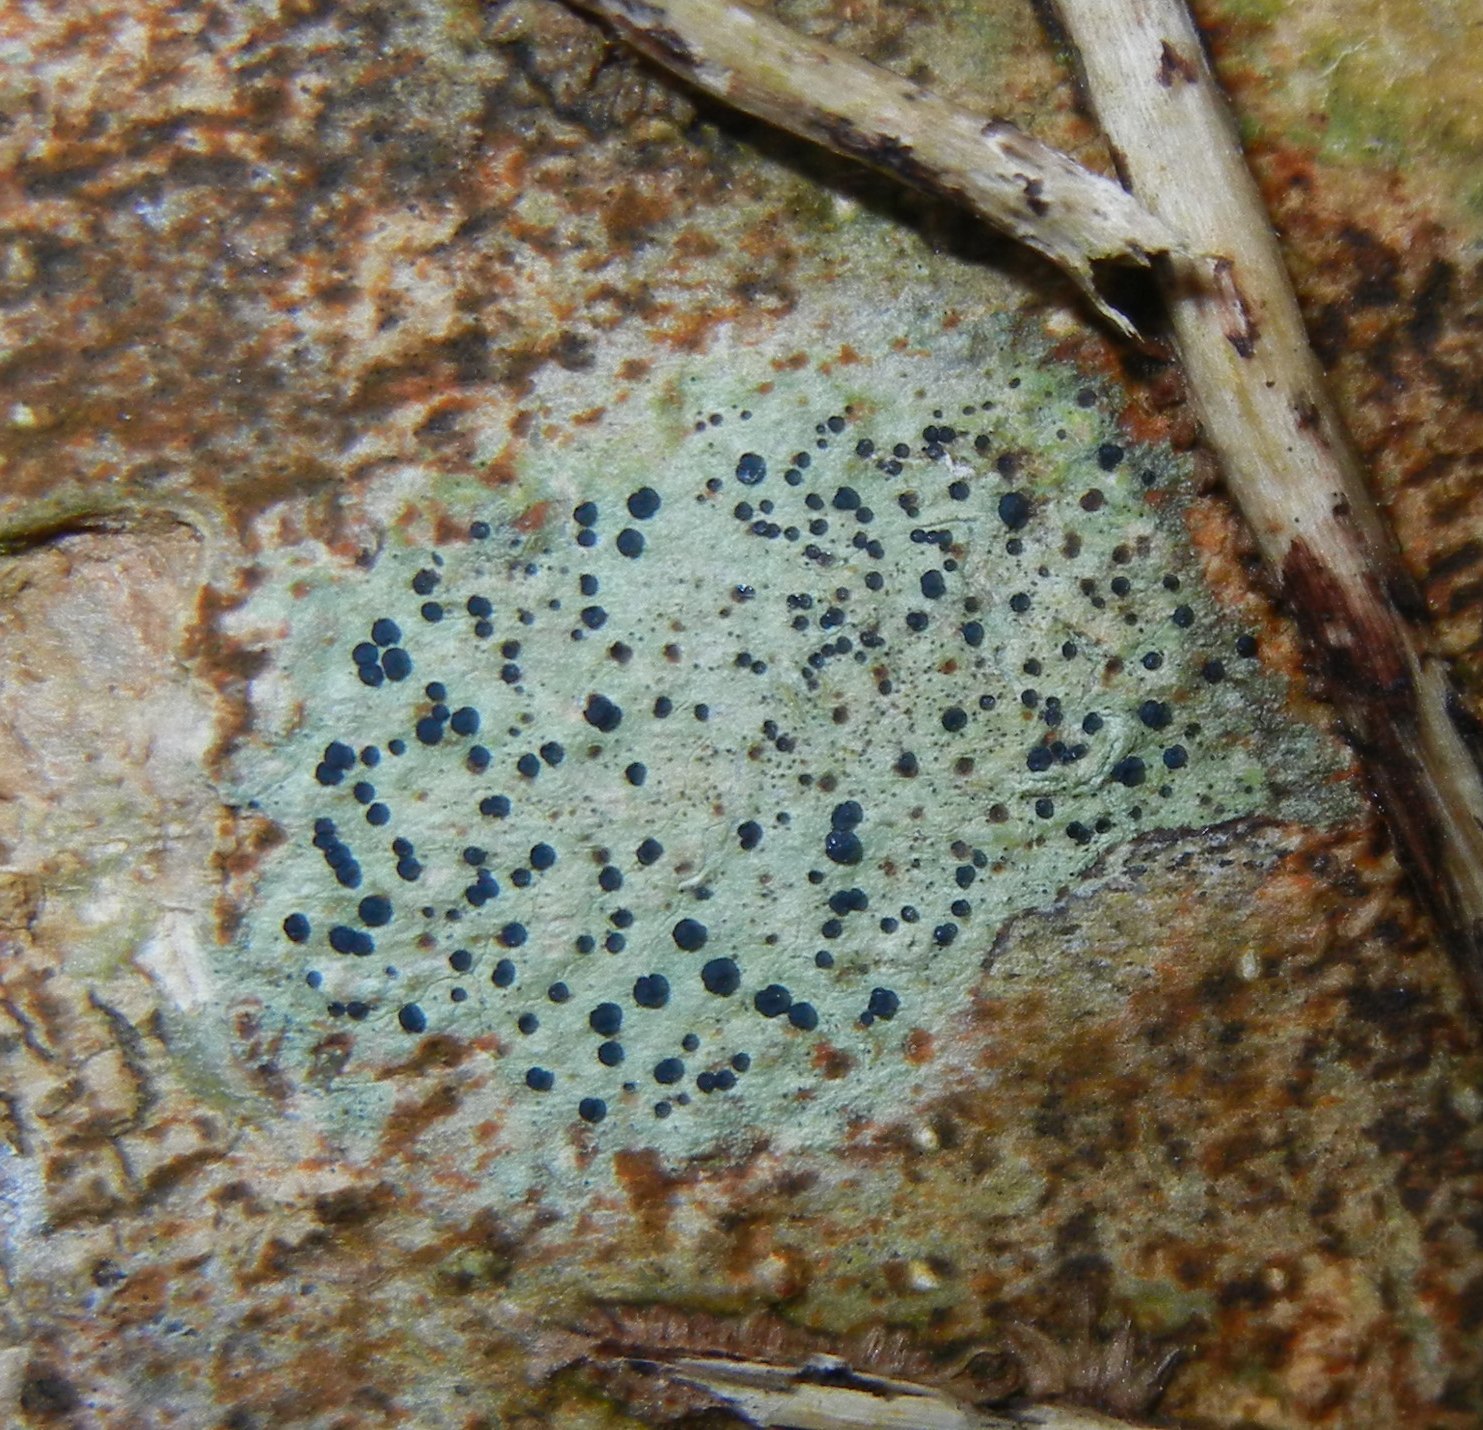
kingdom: Fungi
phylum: Ascomycota
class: Lecanoromycetes
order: Lecanorales
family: Lecanoraceae
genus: Lecidella
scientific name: Lecidella elaeochroma
